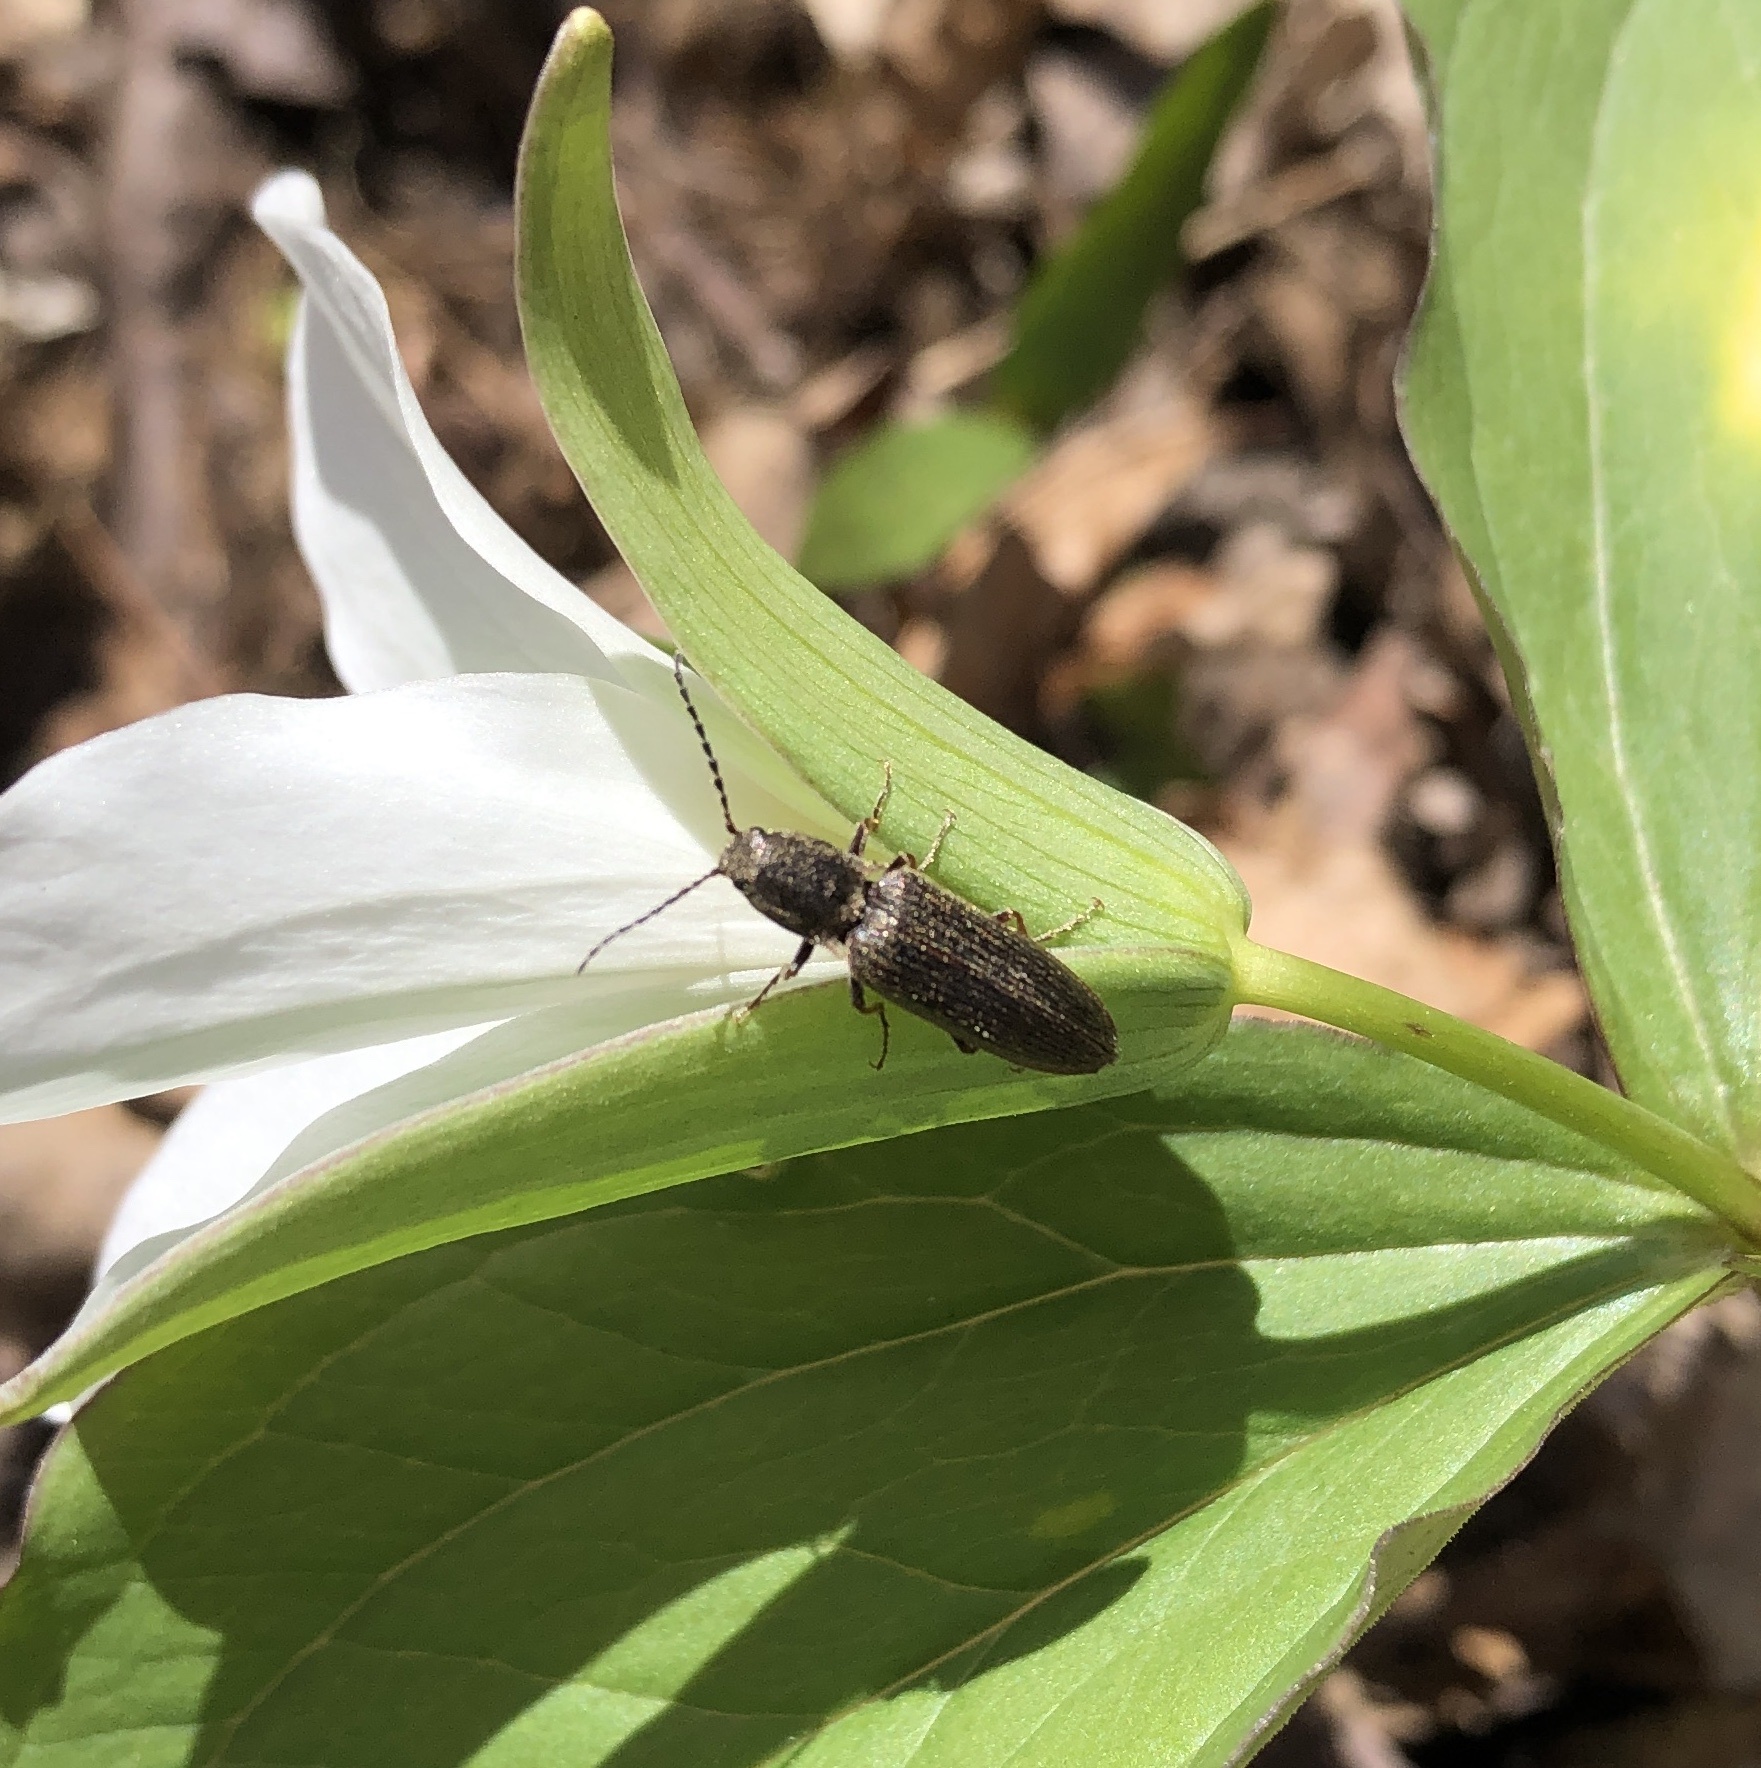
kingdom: Animalia
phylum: Arthropoda
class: Insecta
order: Coleoptera
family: Elateridae
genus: Sylvanelater
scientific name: Sylvanelater cylindriformis
